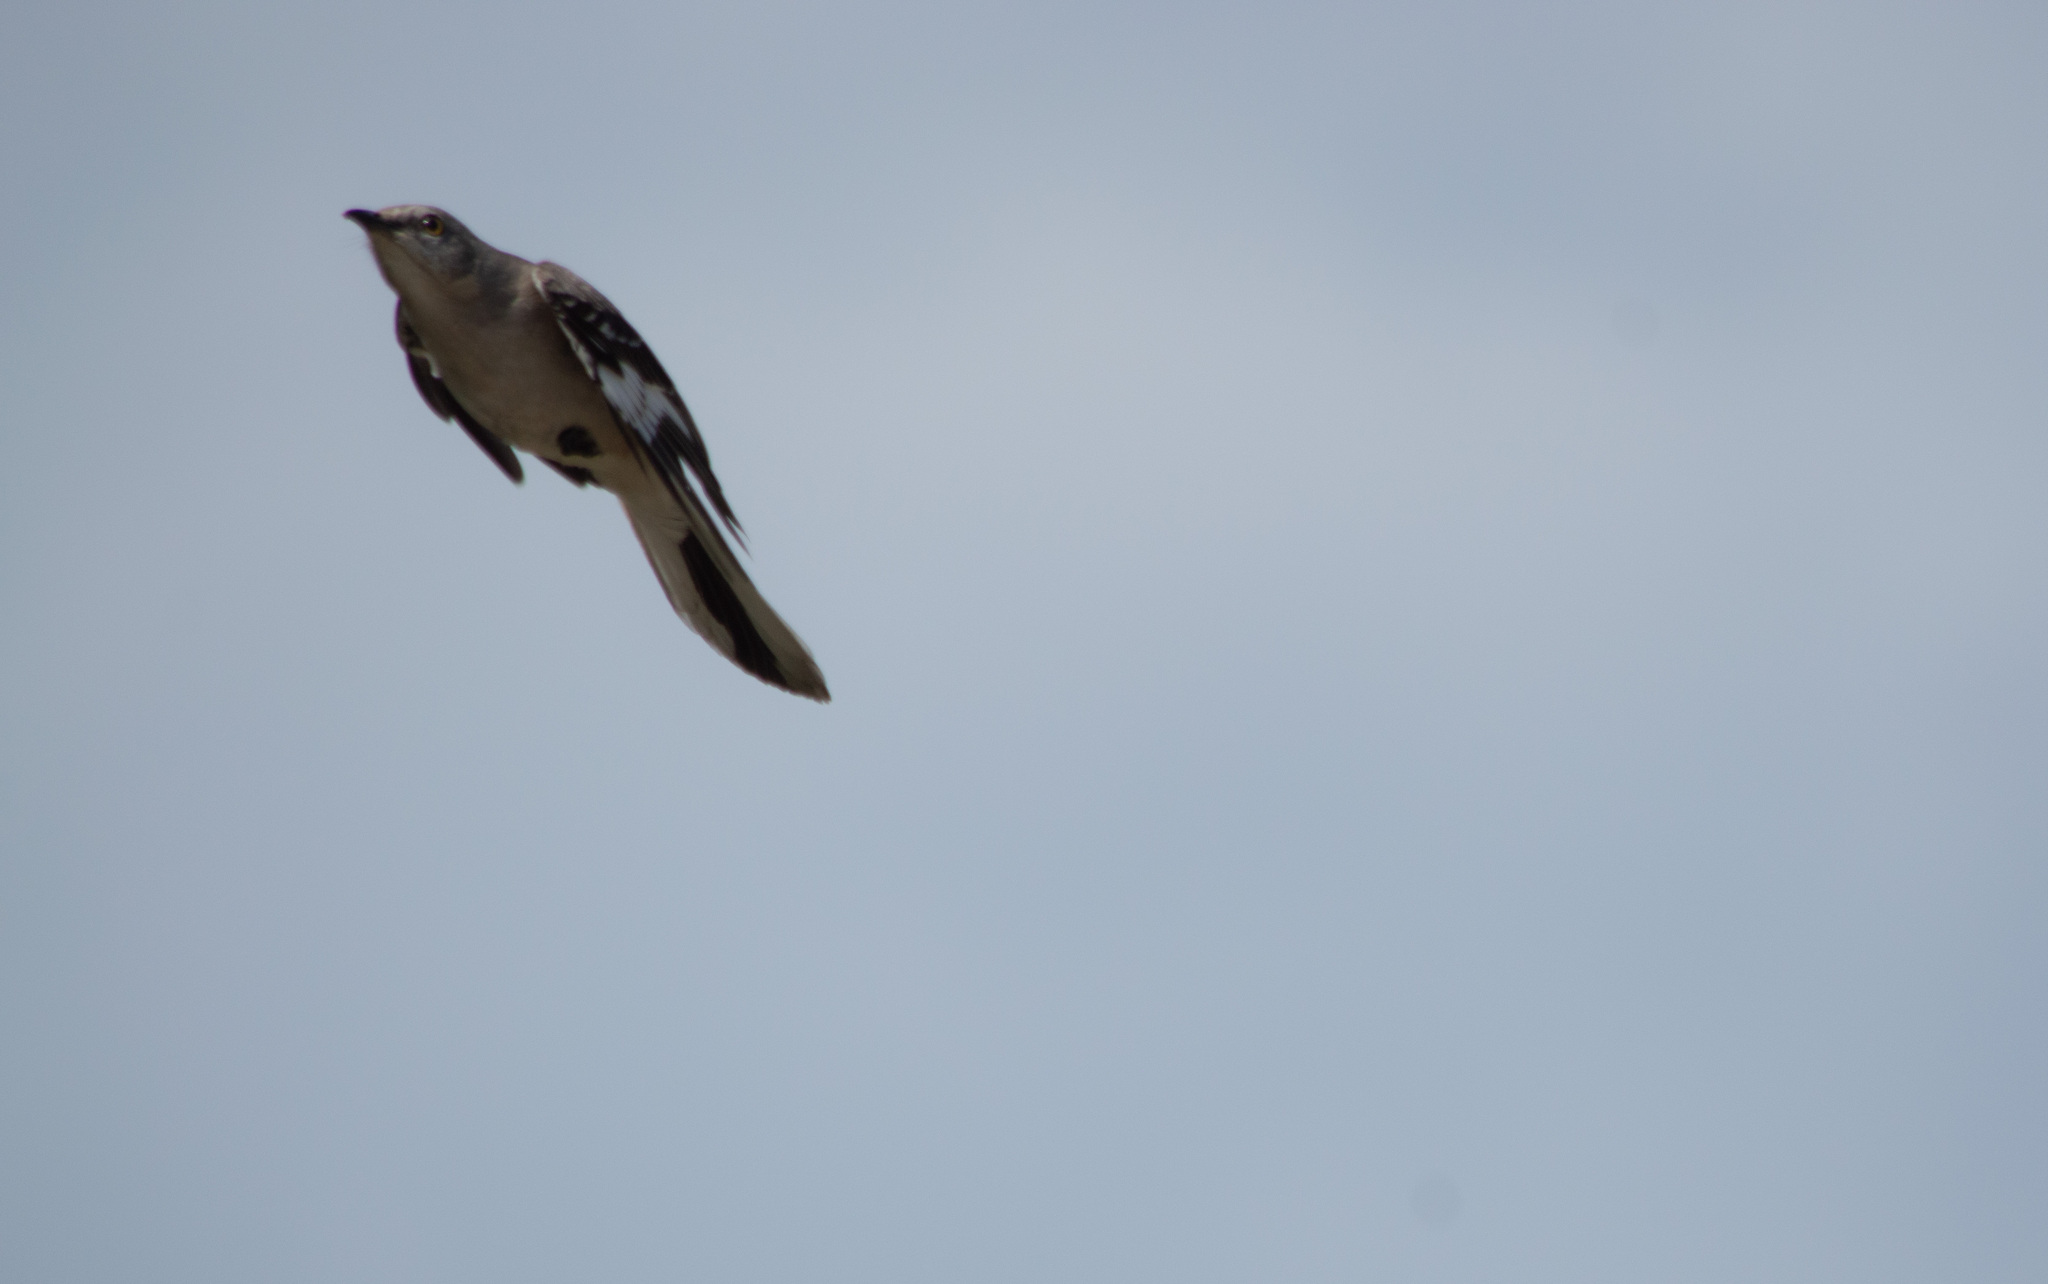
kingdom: Animalia
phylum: Chordata
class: Aves
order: Passeriformes
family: Mimidae
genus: Mimus
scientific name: Mimus polyglottos
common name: Northern mockingbird
